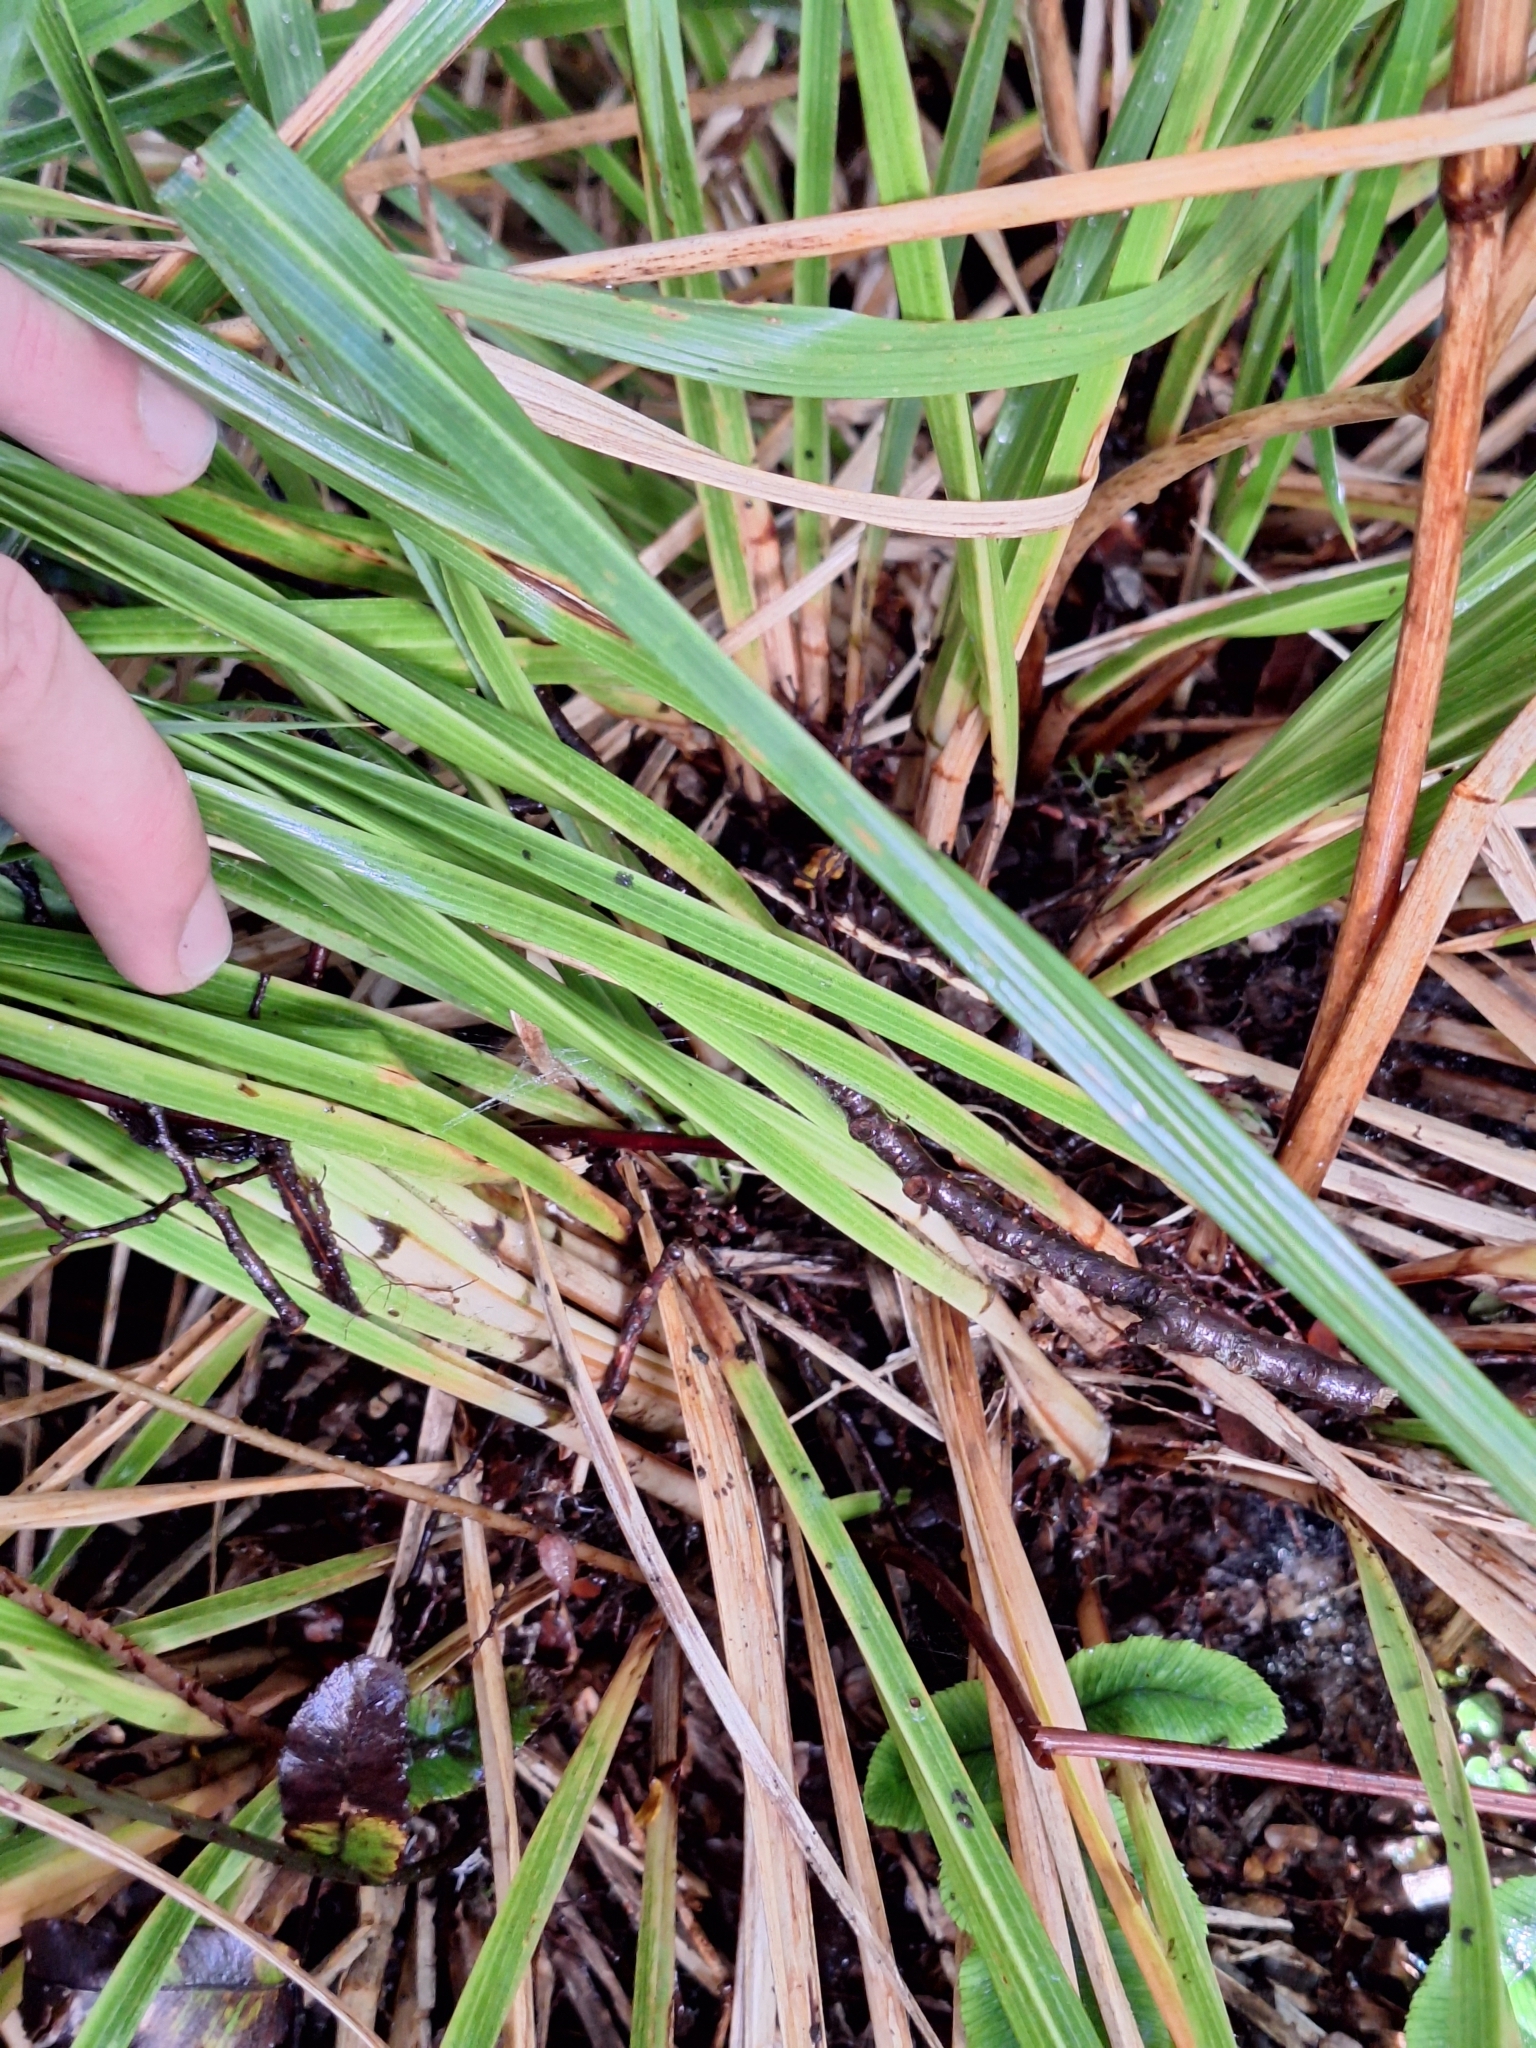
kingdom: Plantae
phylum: Tracheophyta
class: Liliopsida
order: Poales
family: Poaceae
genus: Chionochloa
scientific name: Chionochloa conspicua
